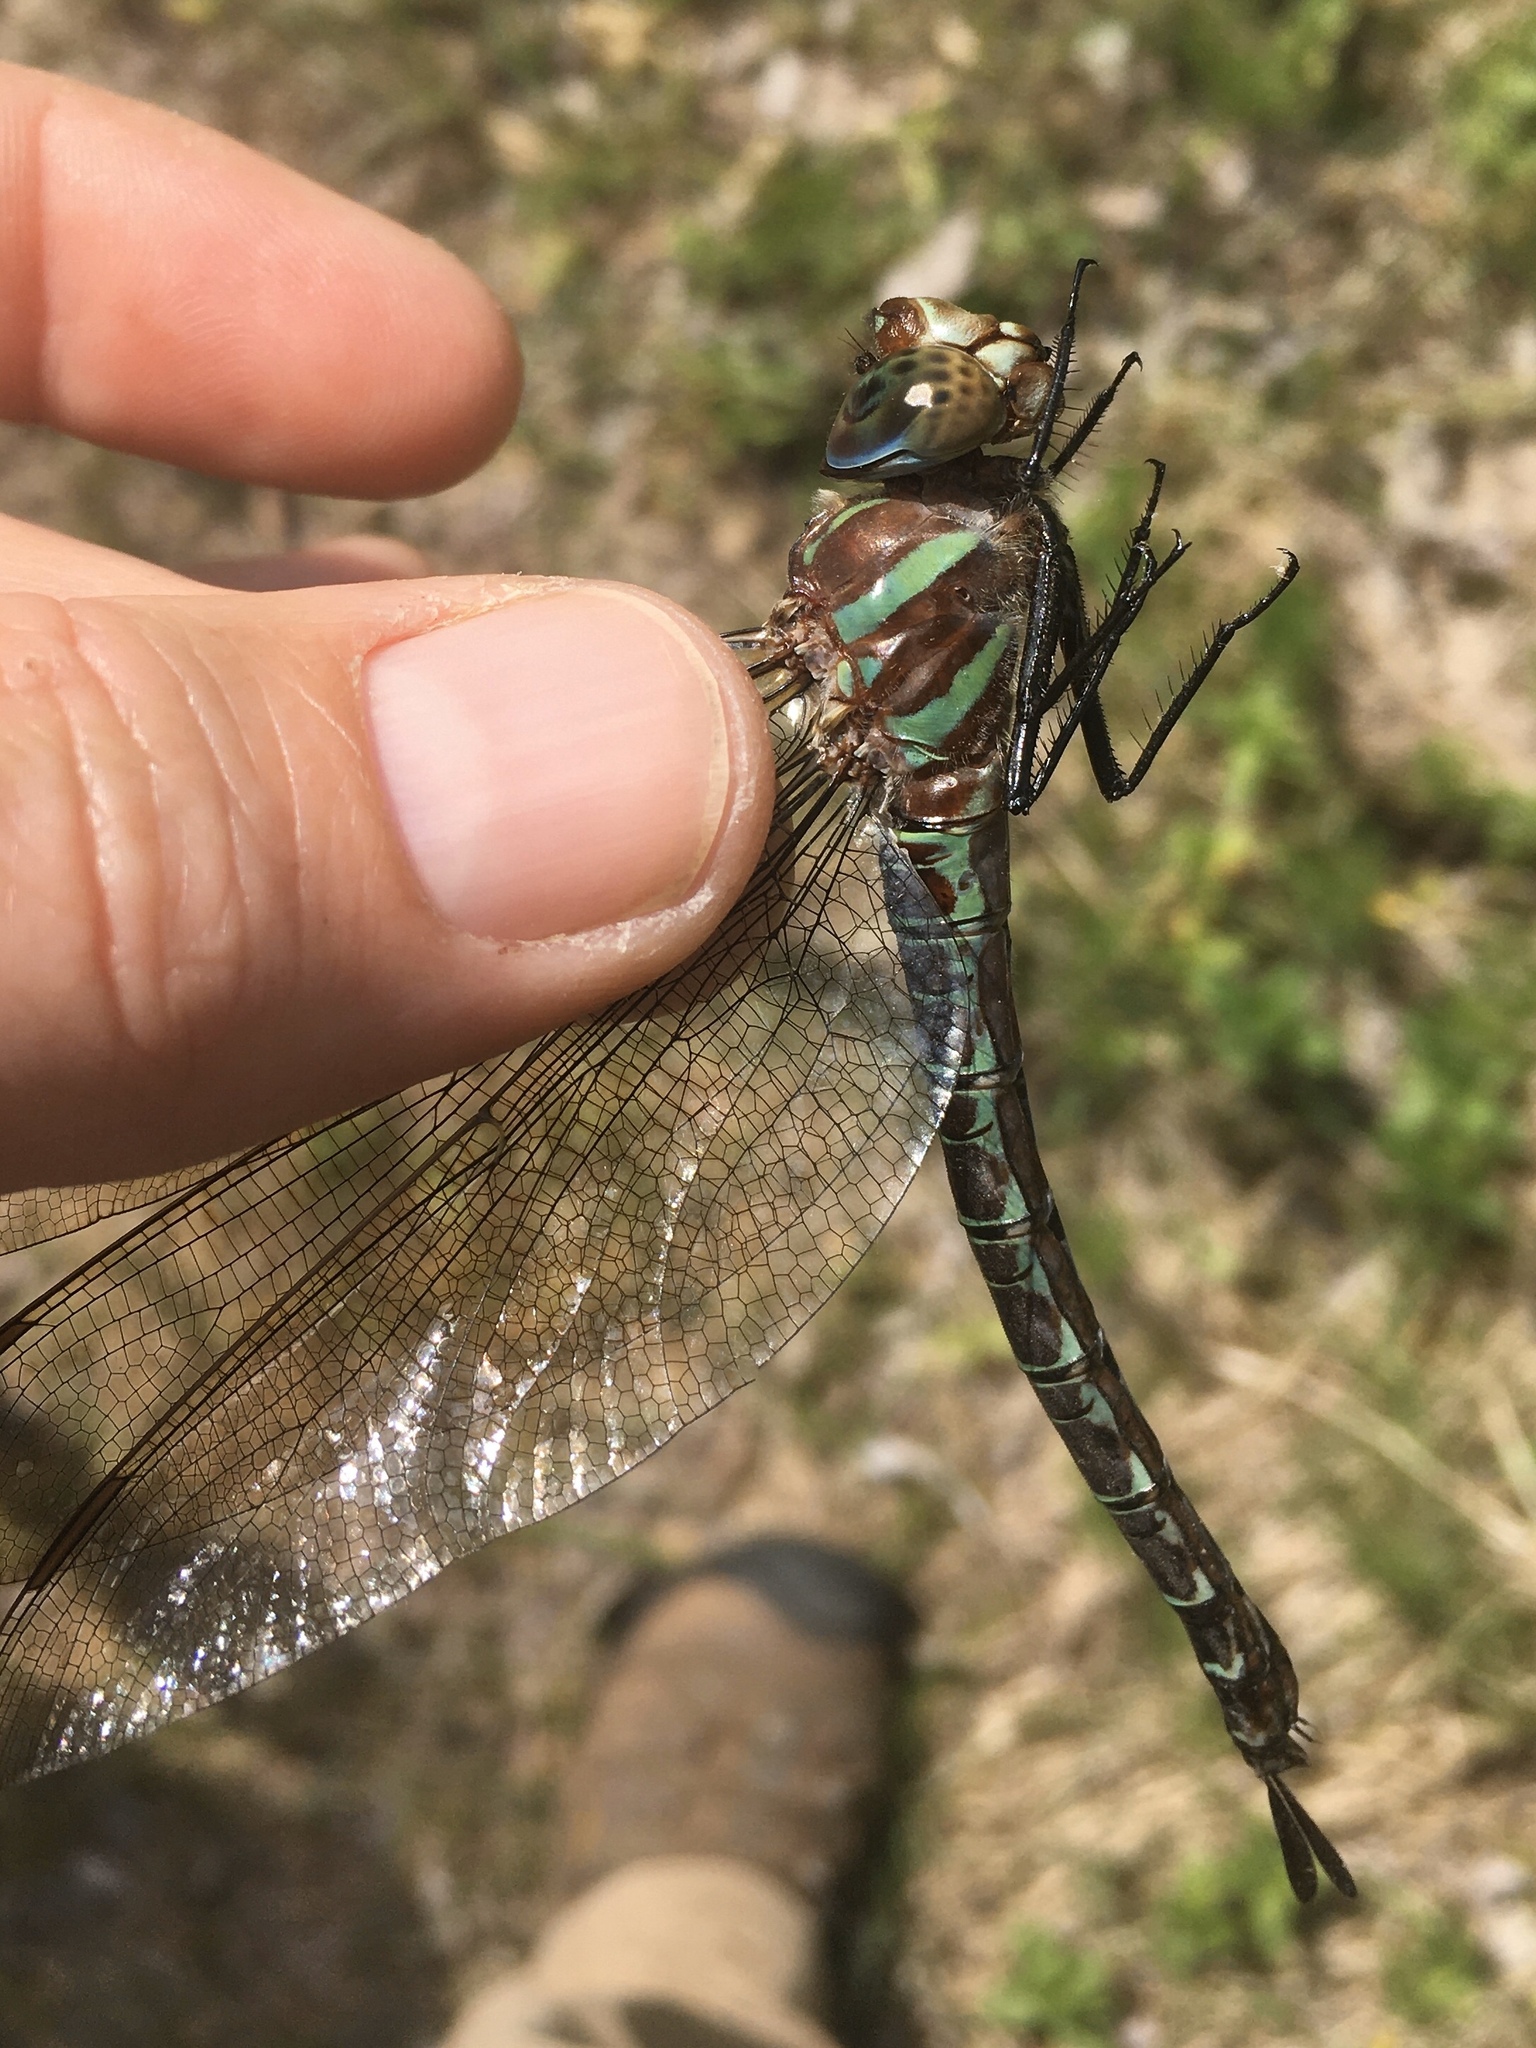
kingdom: Animalia
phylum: Arthropoda
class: Insecta
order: Odonata
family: Aeshnidae
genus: Epiaeschna
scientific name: Epiaeschna heros
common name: Swamp darner
